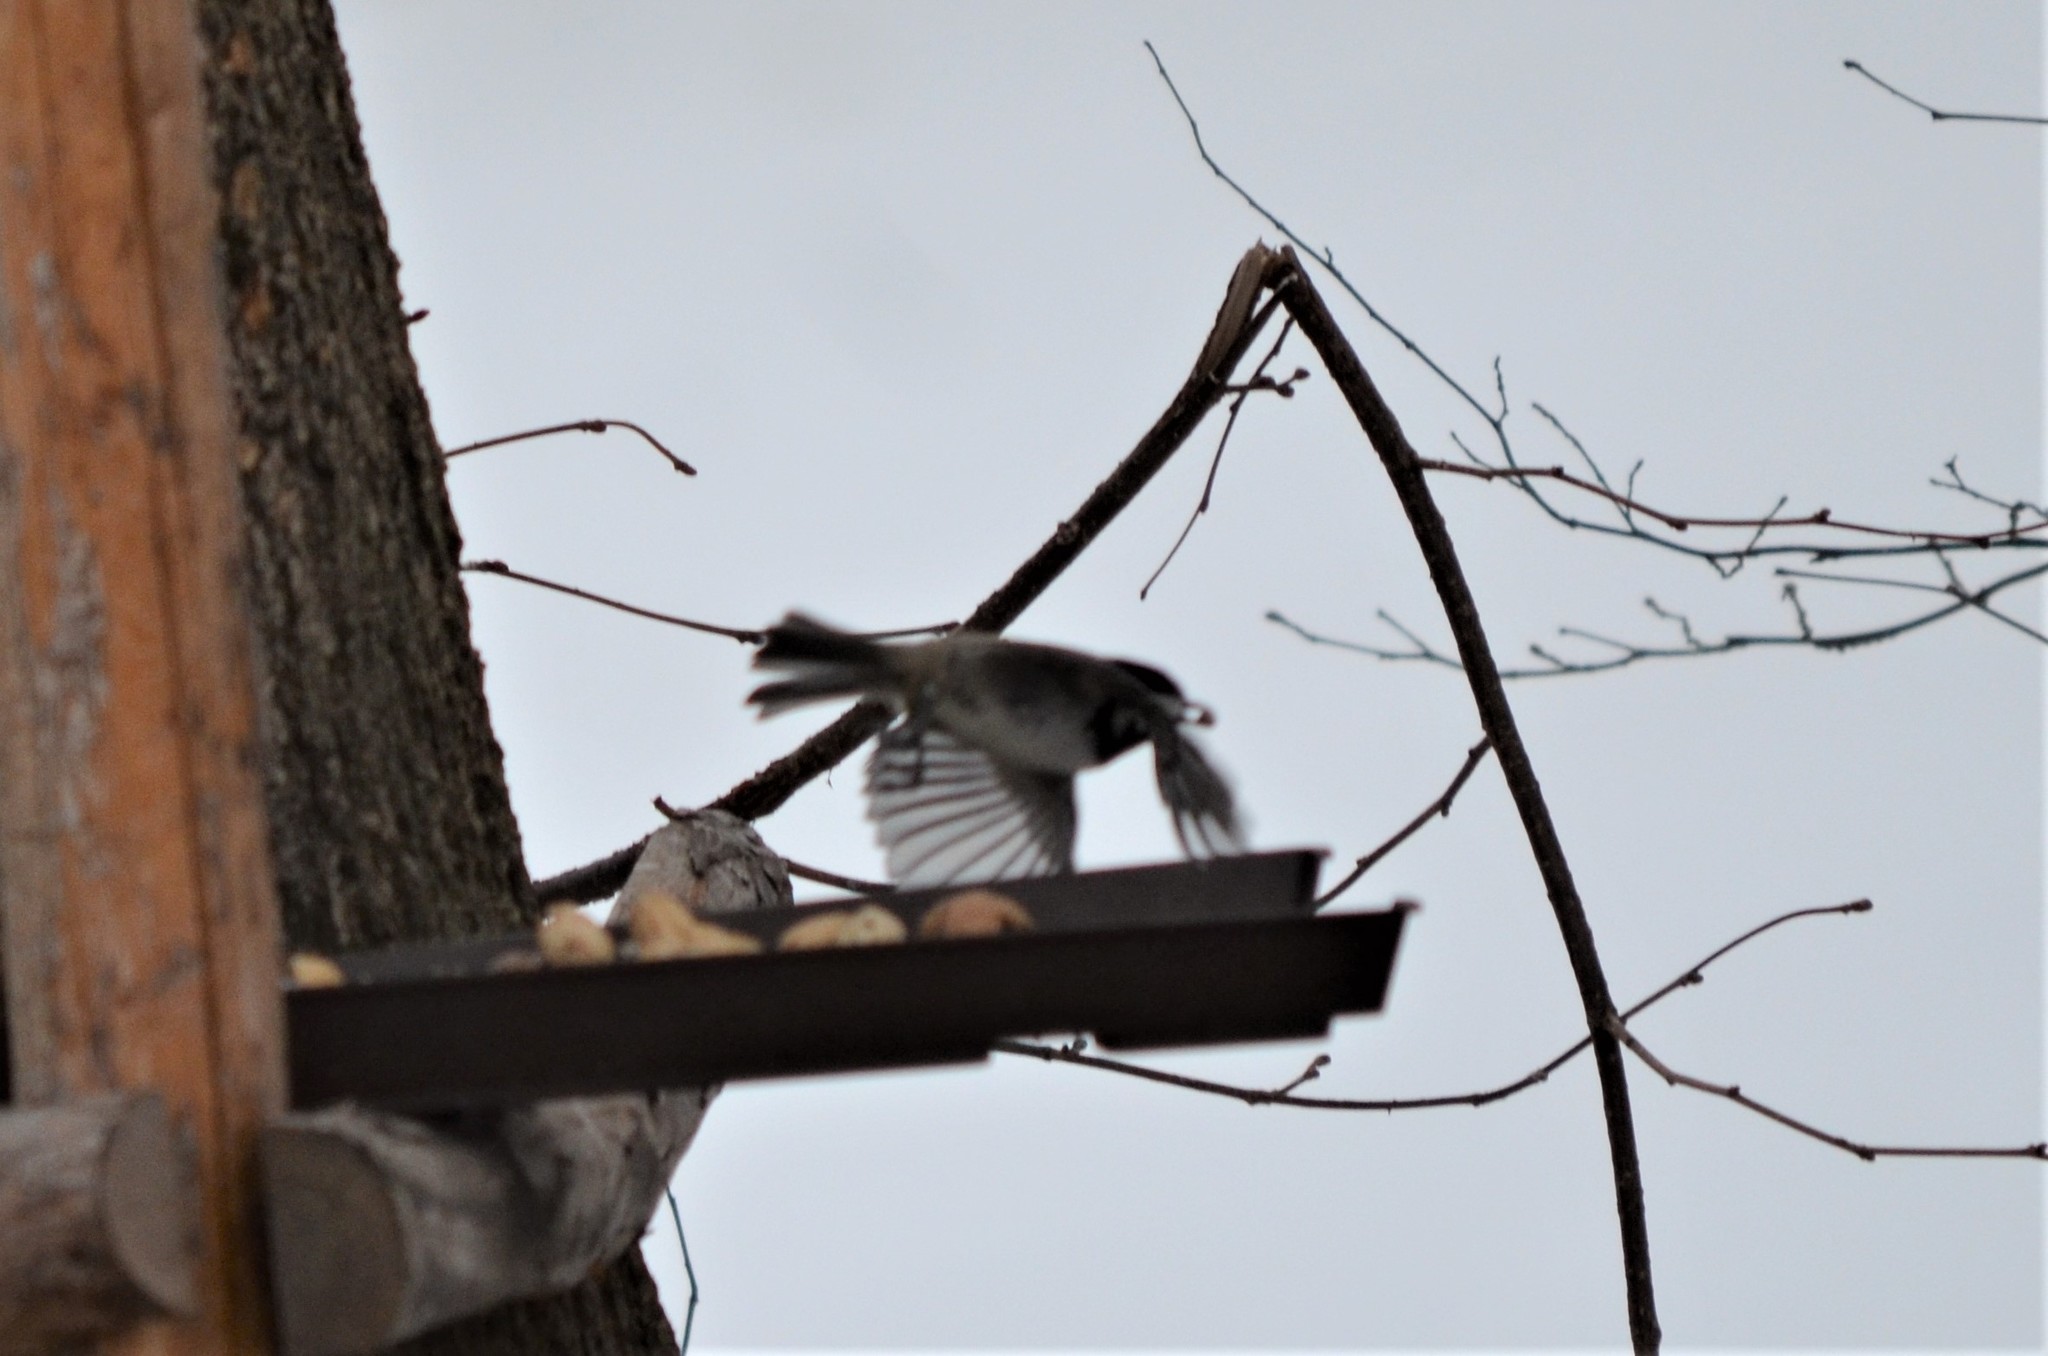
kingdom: Animalia
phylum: Chordata
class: Aves
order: Passeriformes
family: Paridae
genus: Periparus
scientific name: Periparus ater
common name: Coal tit
